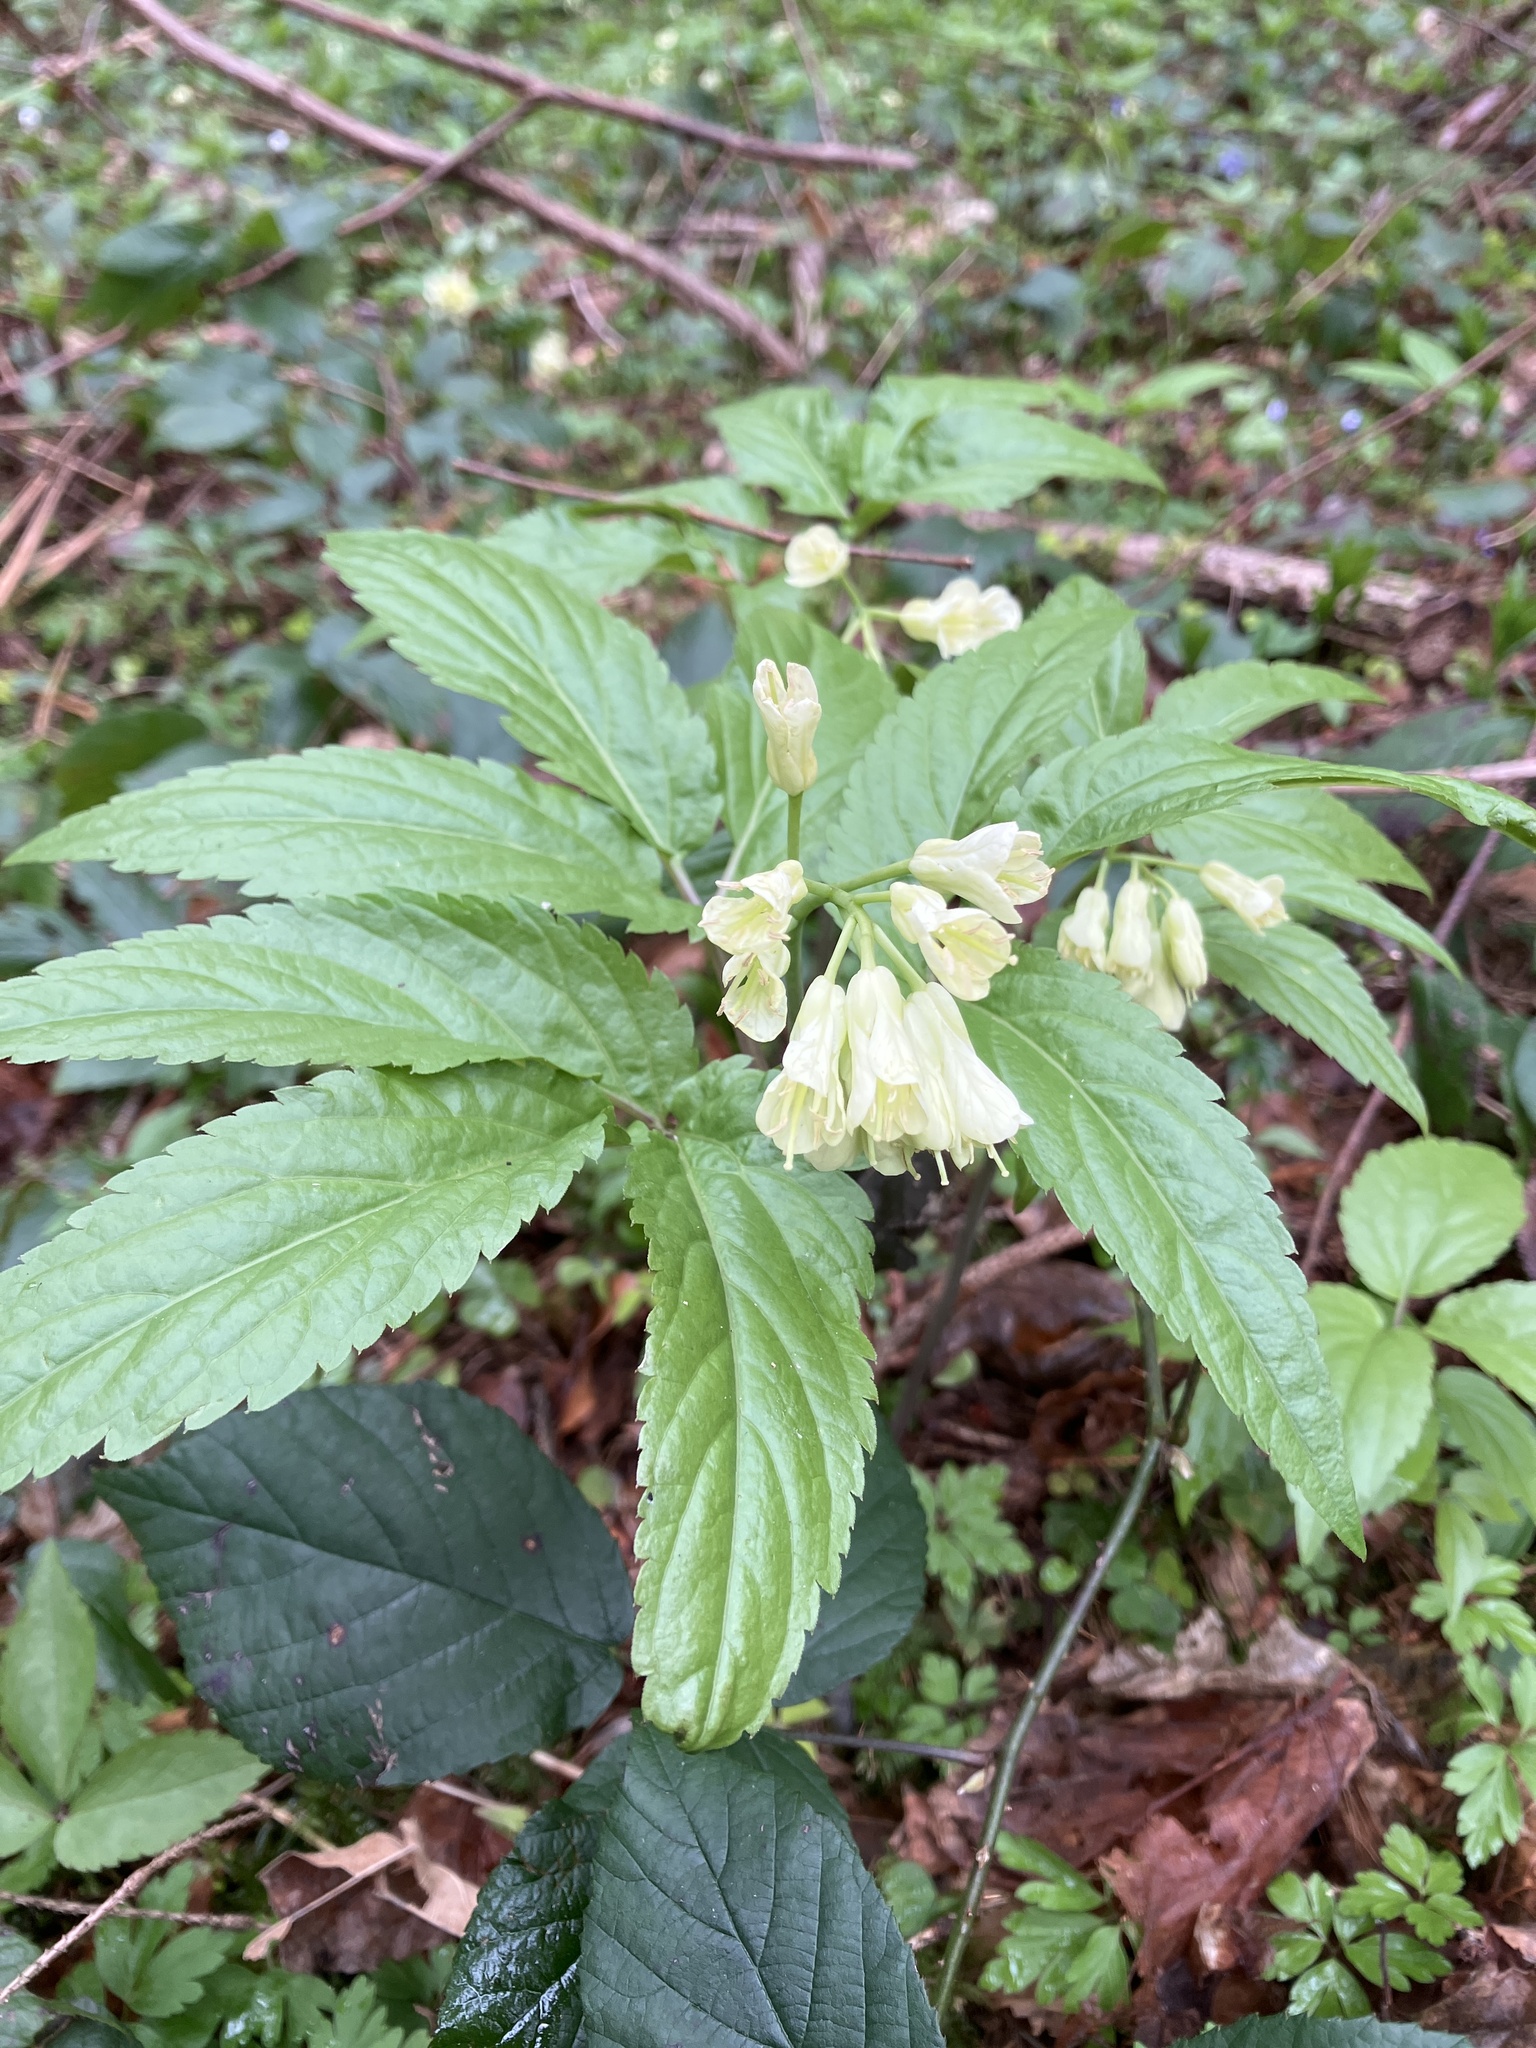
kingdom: Plantae
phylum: Tracheophyta
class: Magnoliopsida
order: Brassicales
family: Brassicaceae
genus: Cardamine
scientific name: Cardamine enneaphyllos
